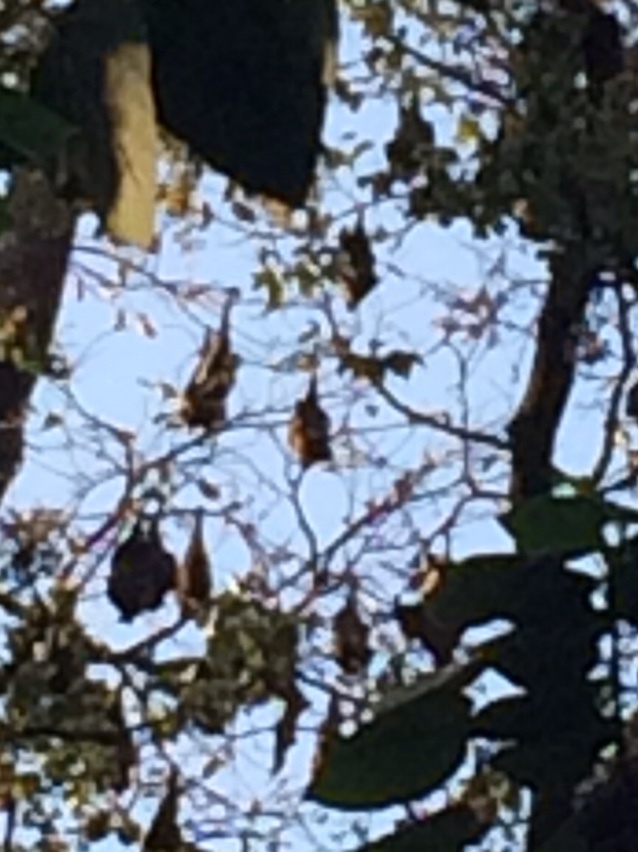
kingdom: Animalia
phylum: Chordata
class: Mammalia
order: Chiroptera
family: Pteropodidae
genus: Pteropus
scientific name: Pteropus vampyrus
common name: Large flying fox
